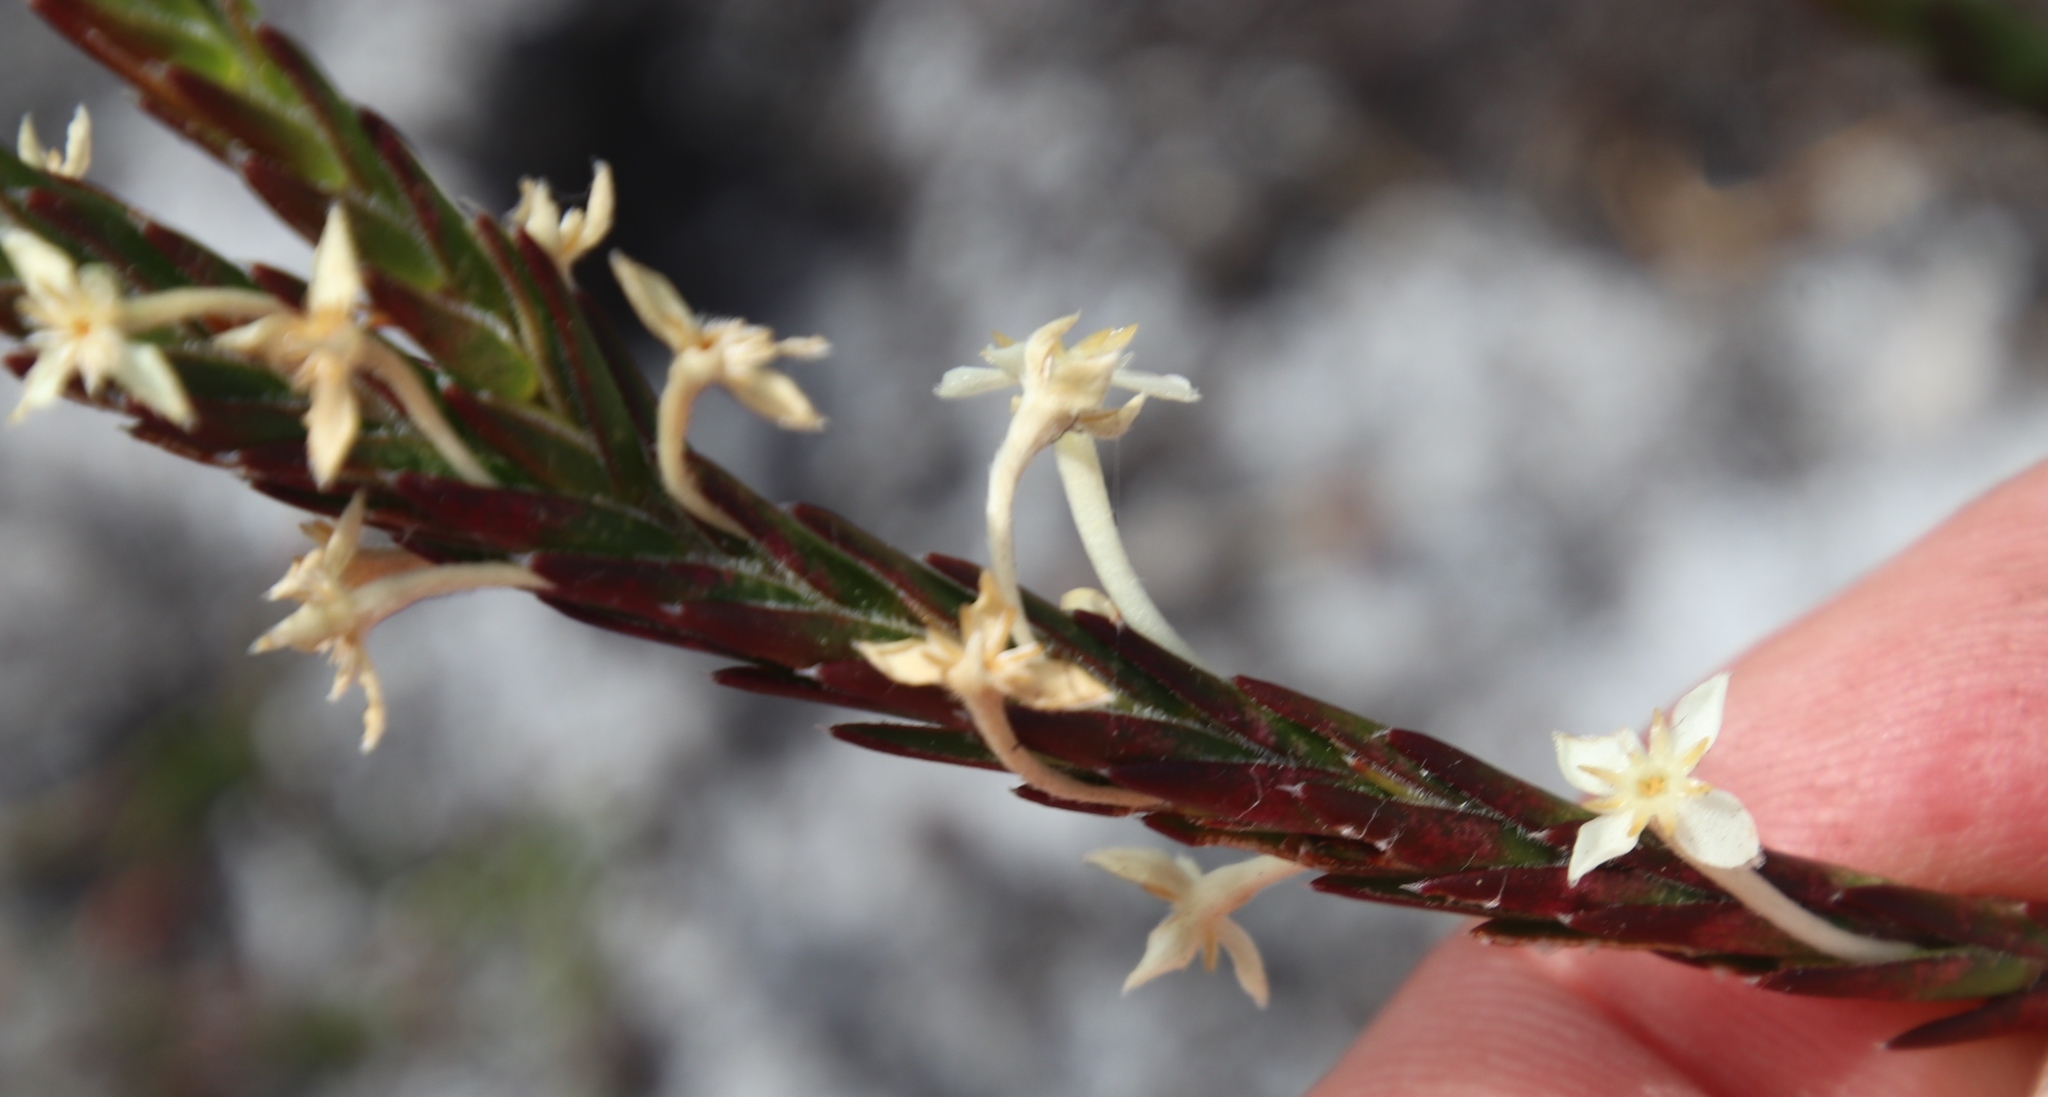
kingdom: Plantae
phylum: Tracheophyta
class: Magnoliopsida
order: Malvales
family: Thymelaeaceae
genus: Struthiola
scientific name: Struthiola ciliata
